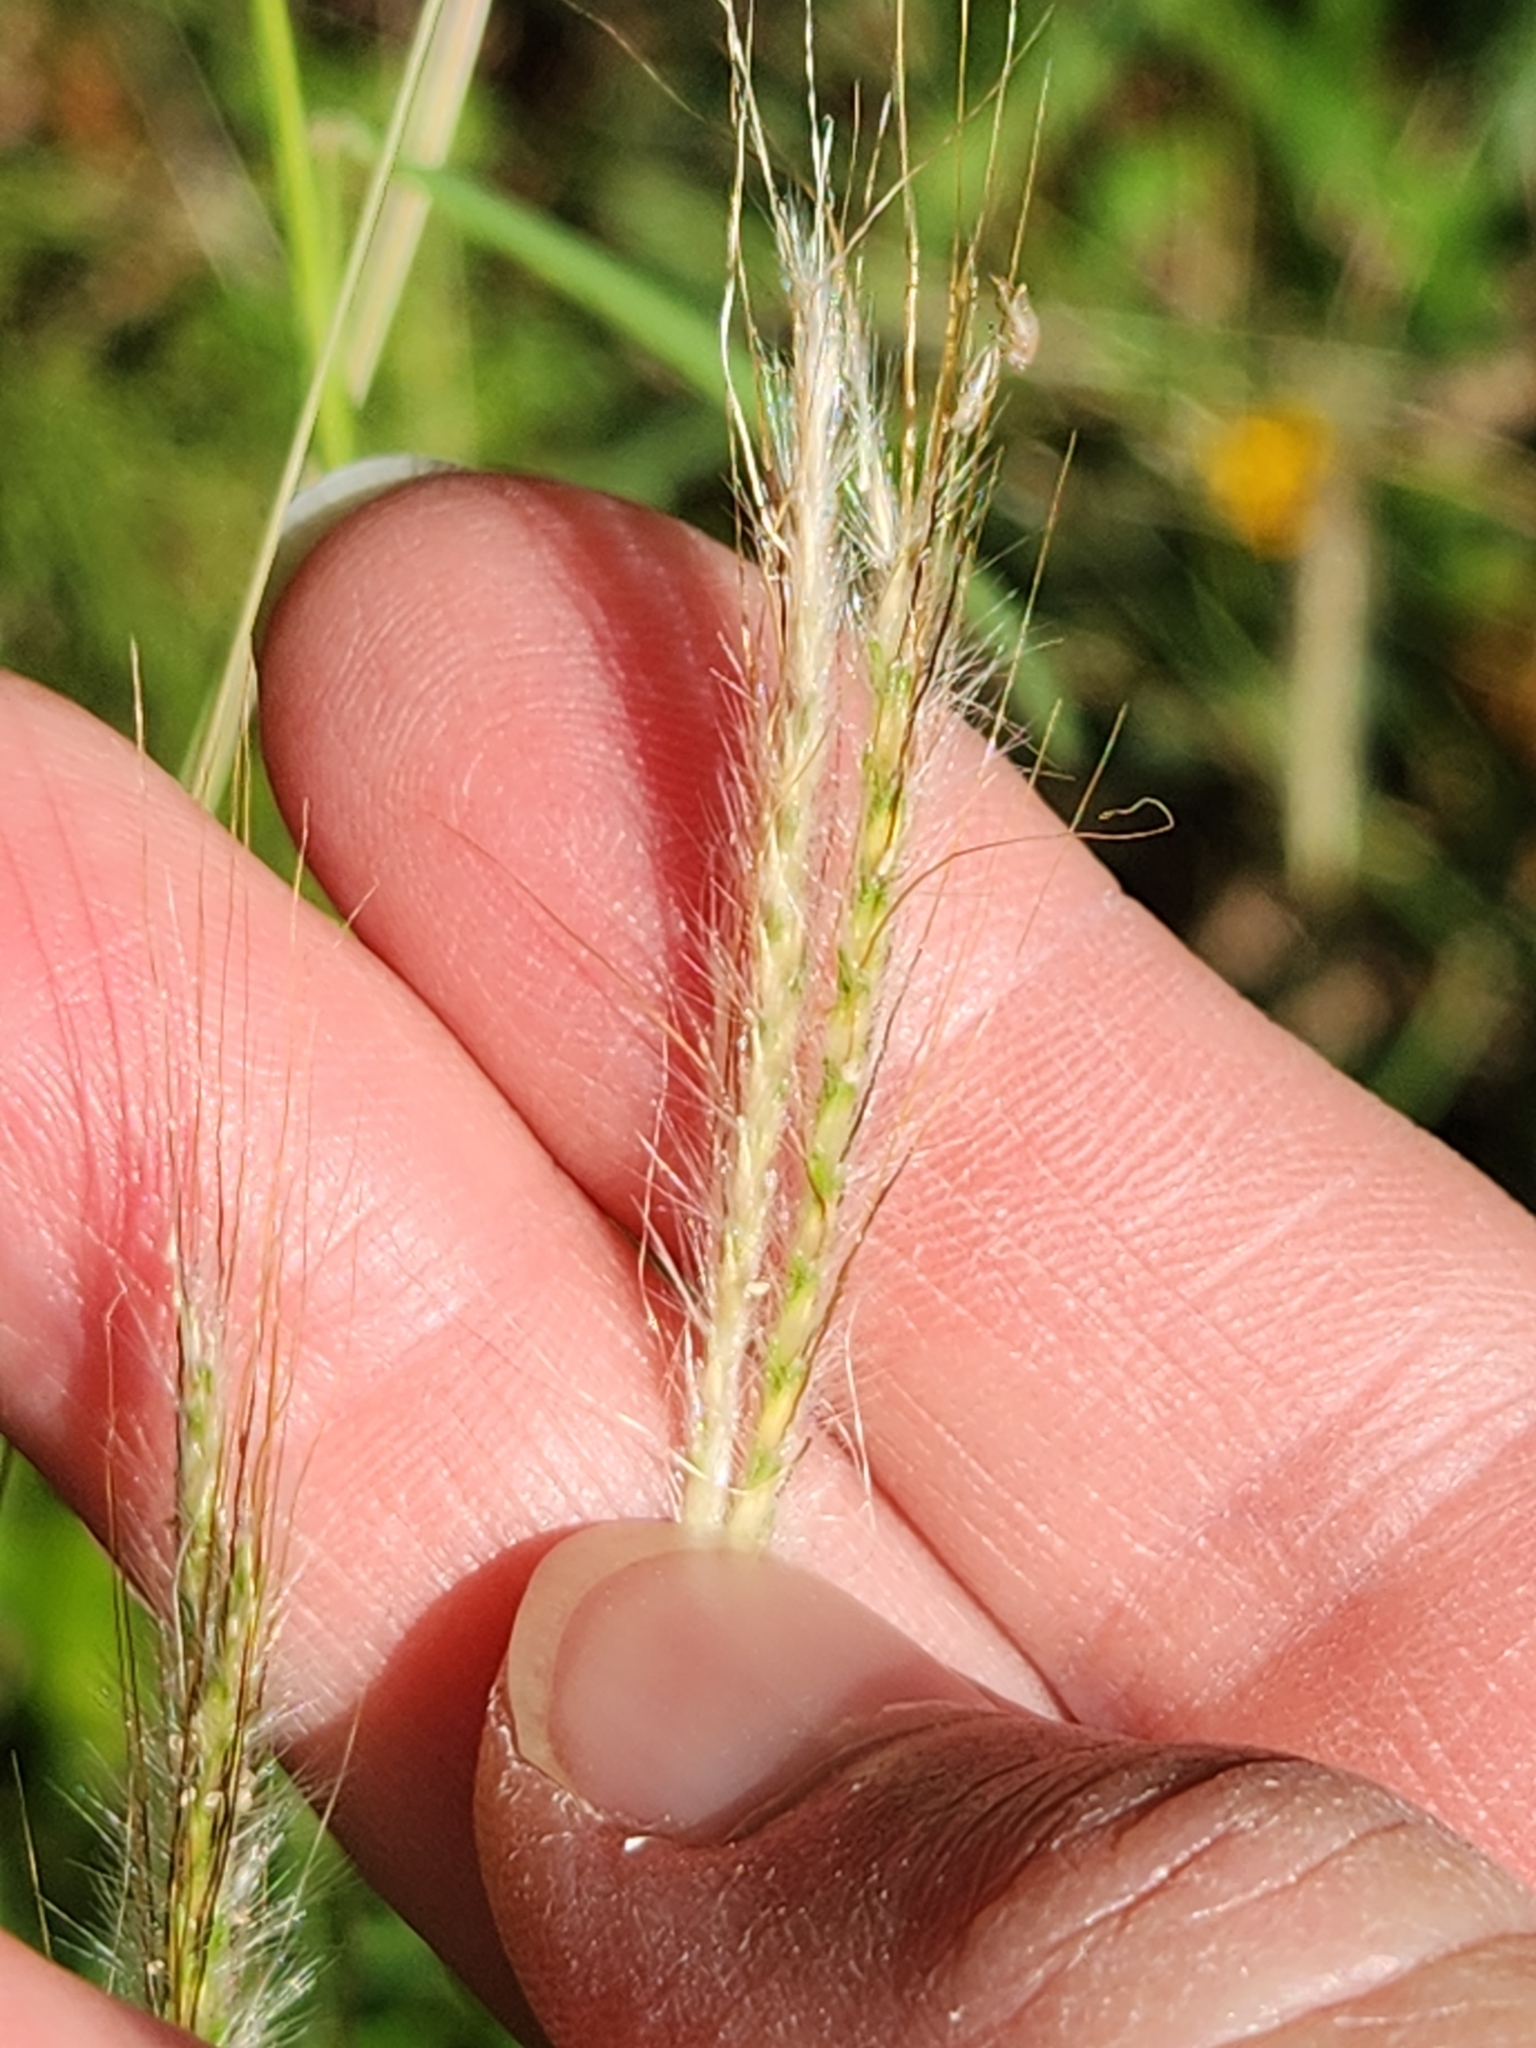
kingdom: Plantae
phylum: Tracheophyta
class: Liliopsida
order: Poales
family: Poaceae
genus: Dichanthium
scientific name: Dichanthium sericeum
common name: Silky bluestem
